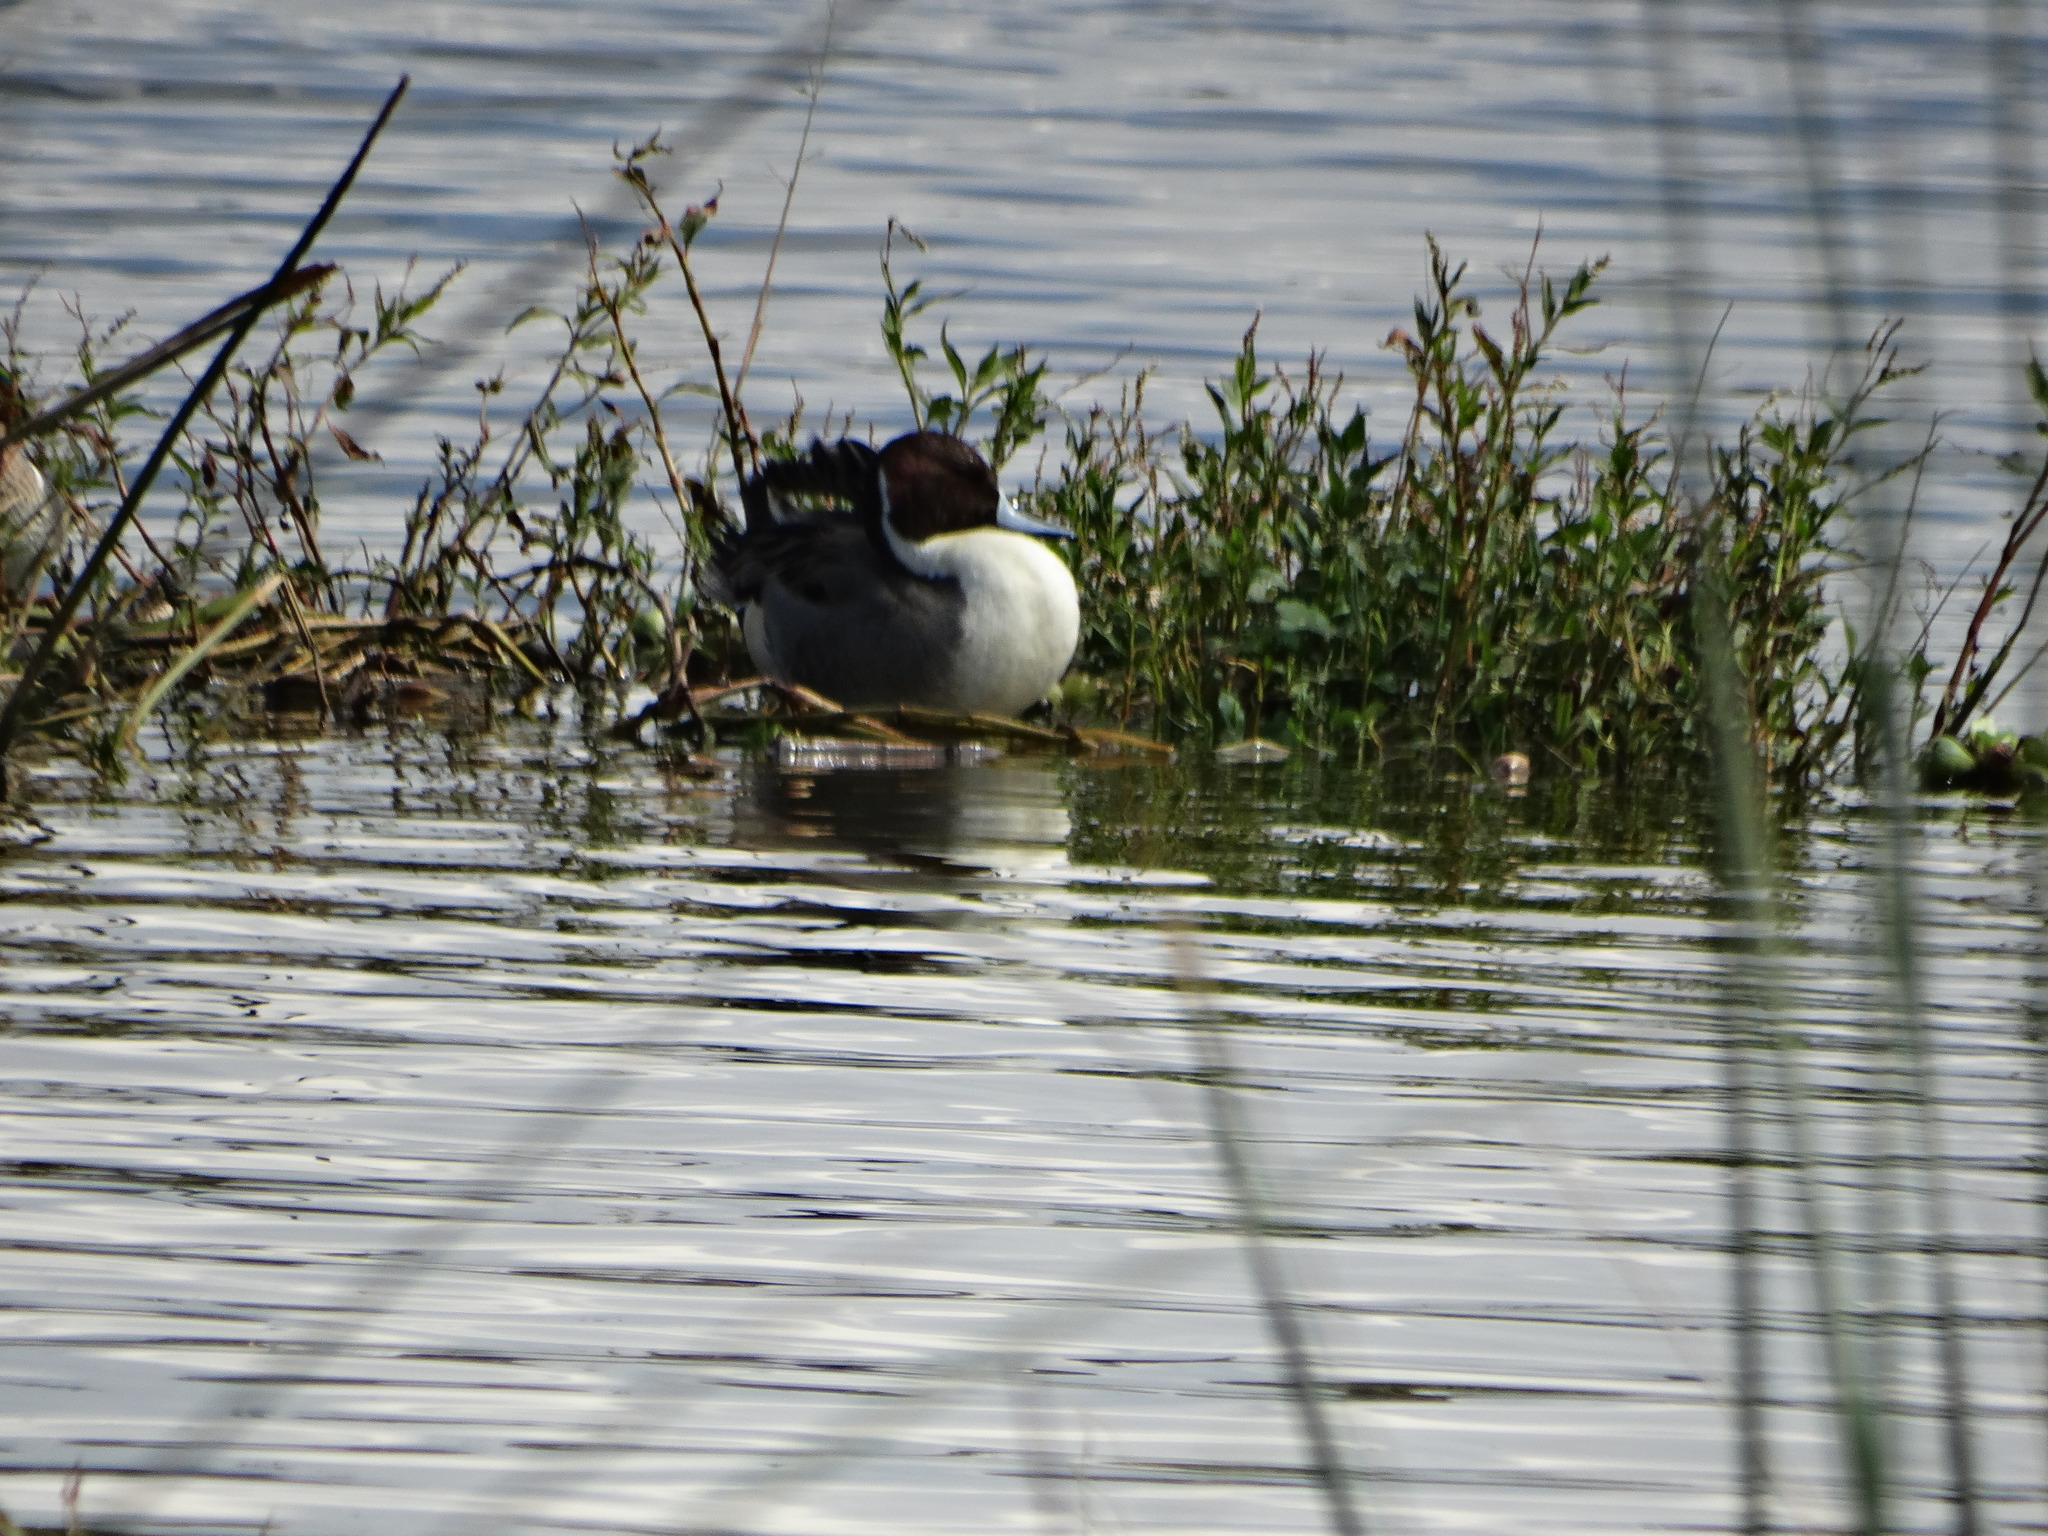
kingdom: Animalia
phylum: Chordata
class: Aves
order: Anseriformes
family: Anatidae
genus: Anas
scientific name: Anas acuta
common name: Northern pintail
